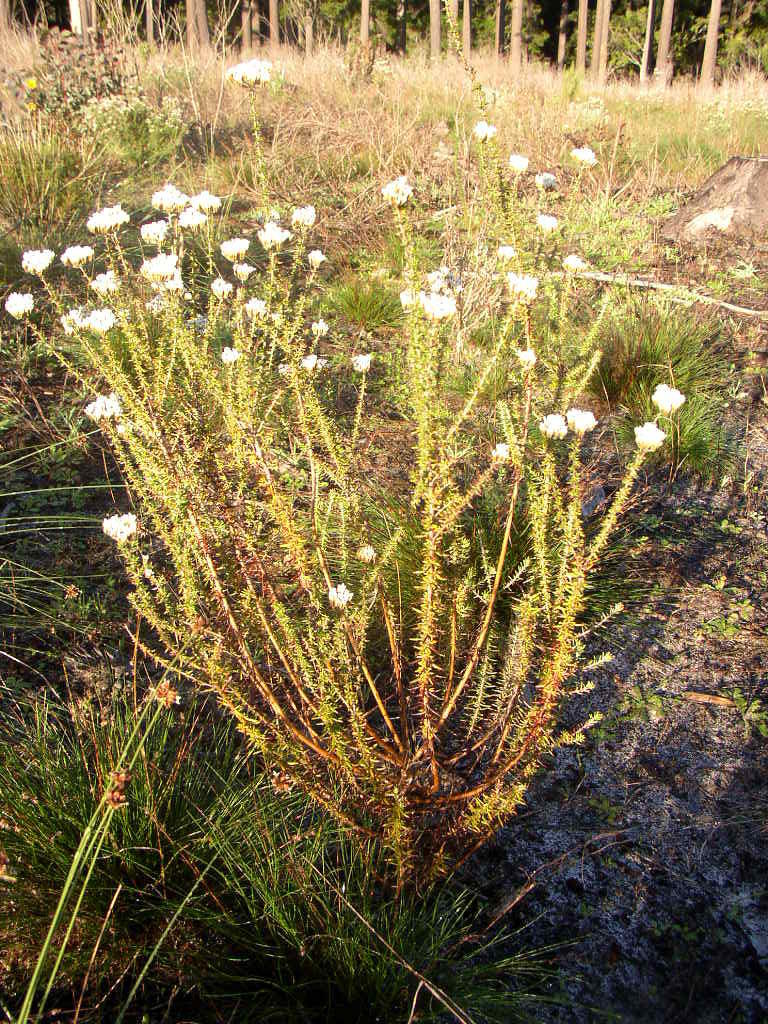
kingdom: Plantae
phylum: Tracheophyta
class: Magnoliopsida
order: Asterales
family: Asteraceae
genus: Metalasia
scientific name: Metalasia densa
